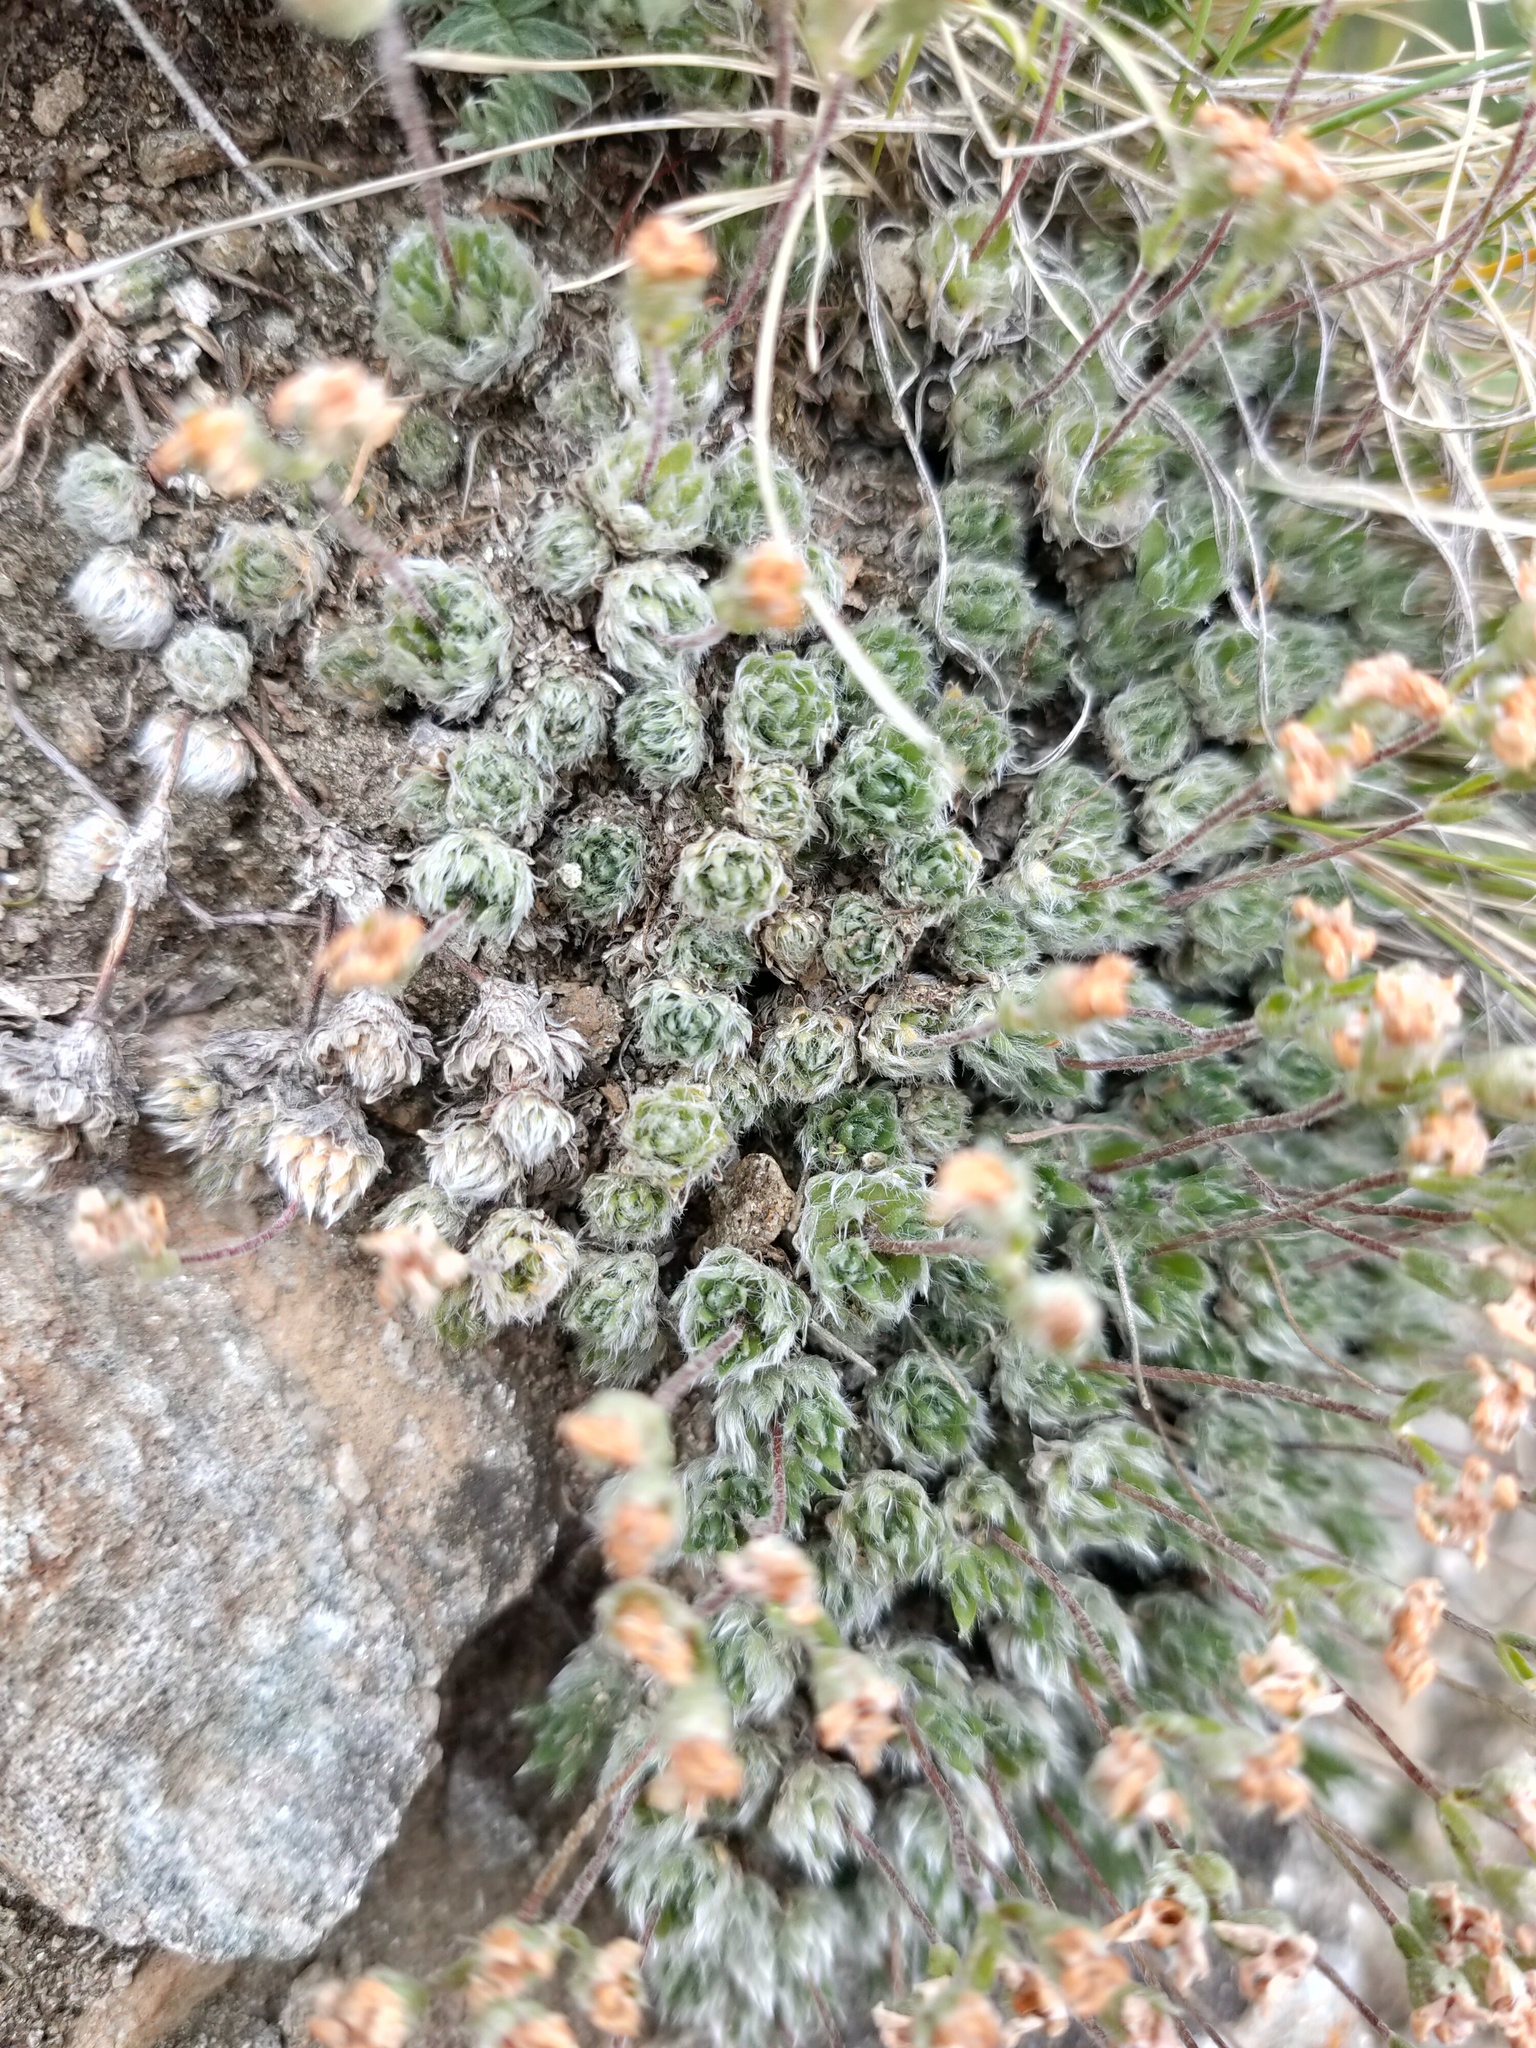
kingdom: Plantae
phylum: Tracheophyta
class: Magnoliopsida
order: Ericales
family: Primulaceae
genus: Androsace
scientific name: Androsace incana
